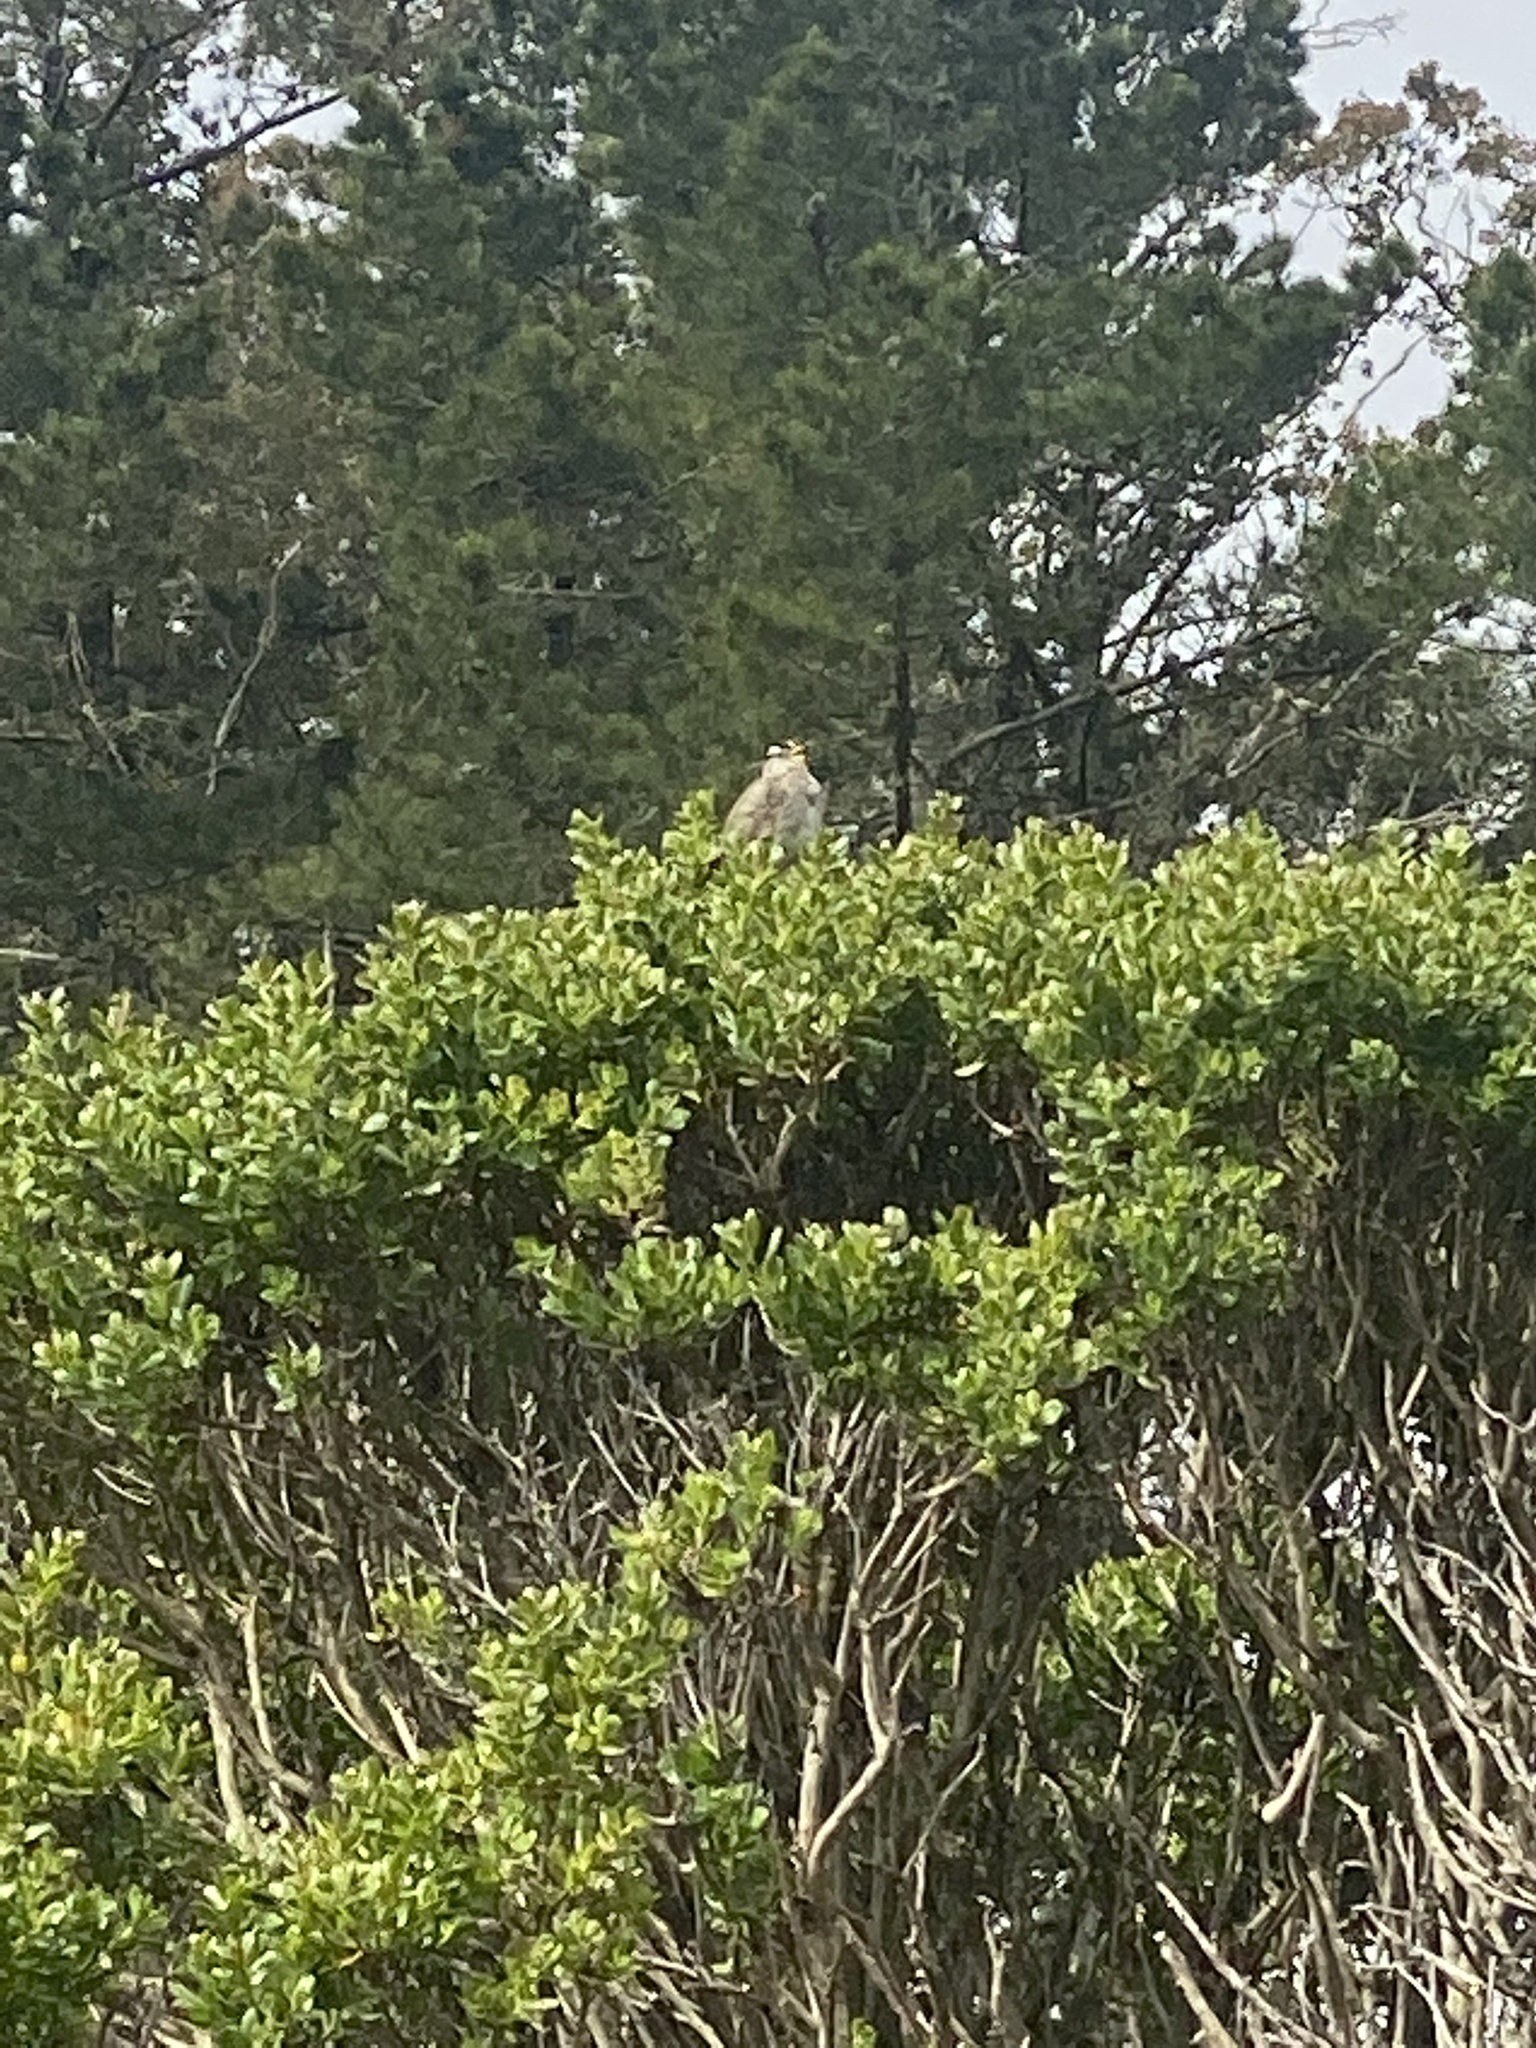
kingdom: Animalia
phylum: Chordata
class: Aves
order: Passeriformes
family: Passerellidae
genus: Zonotrichia
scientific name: Zonotrichia leucophrys
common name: White-crowned sparrow
